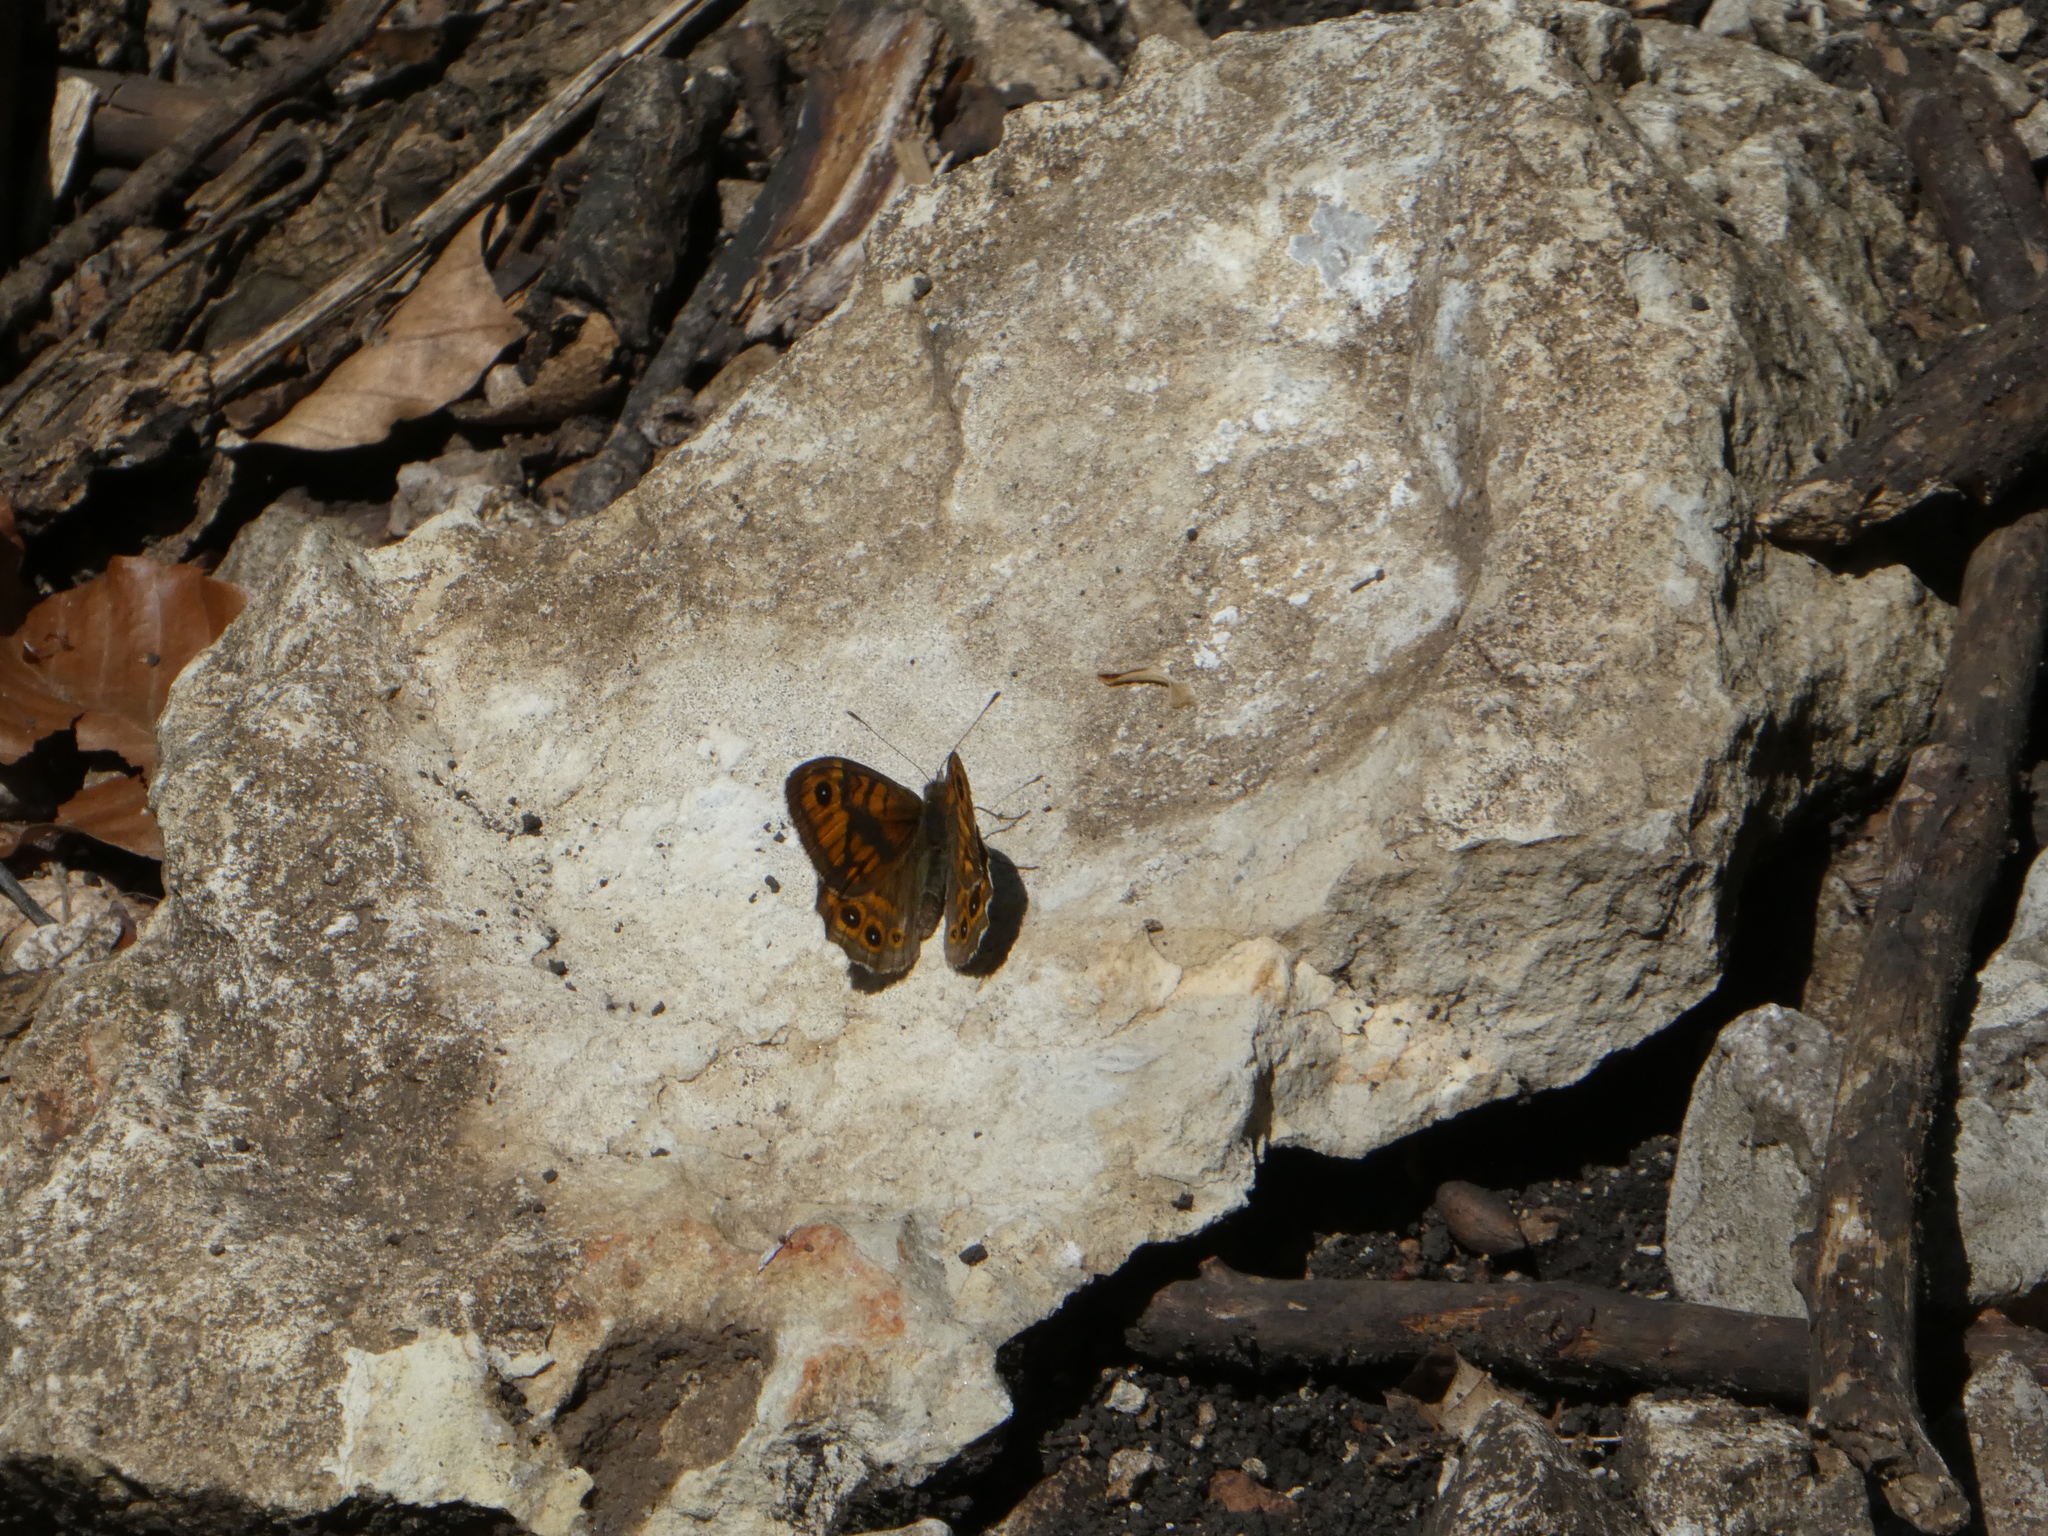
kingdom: Animalia
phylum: Arthropoda
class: Insecta
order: Lepidoptera
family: Nymphalidae
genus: Pararge
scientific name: Pararge Lasiommata megera
